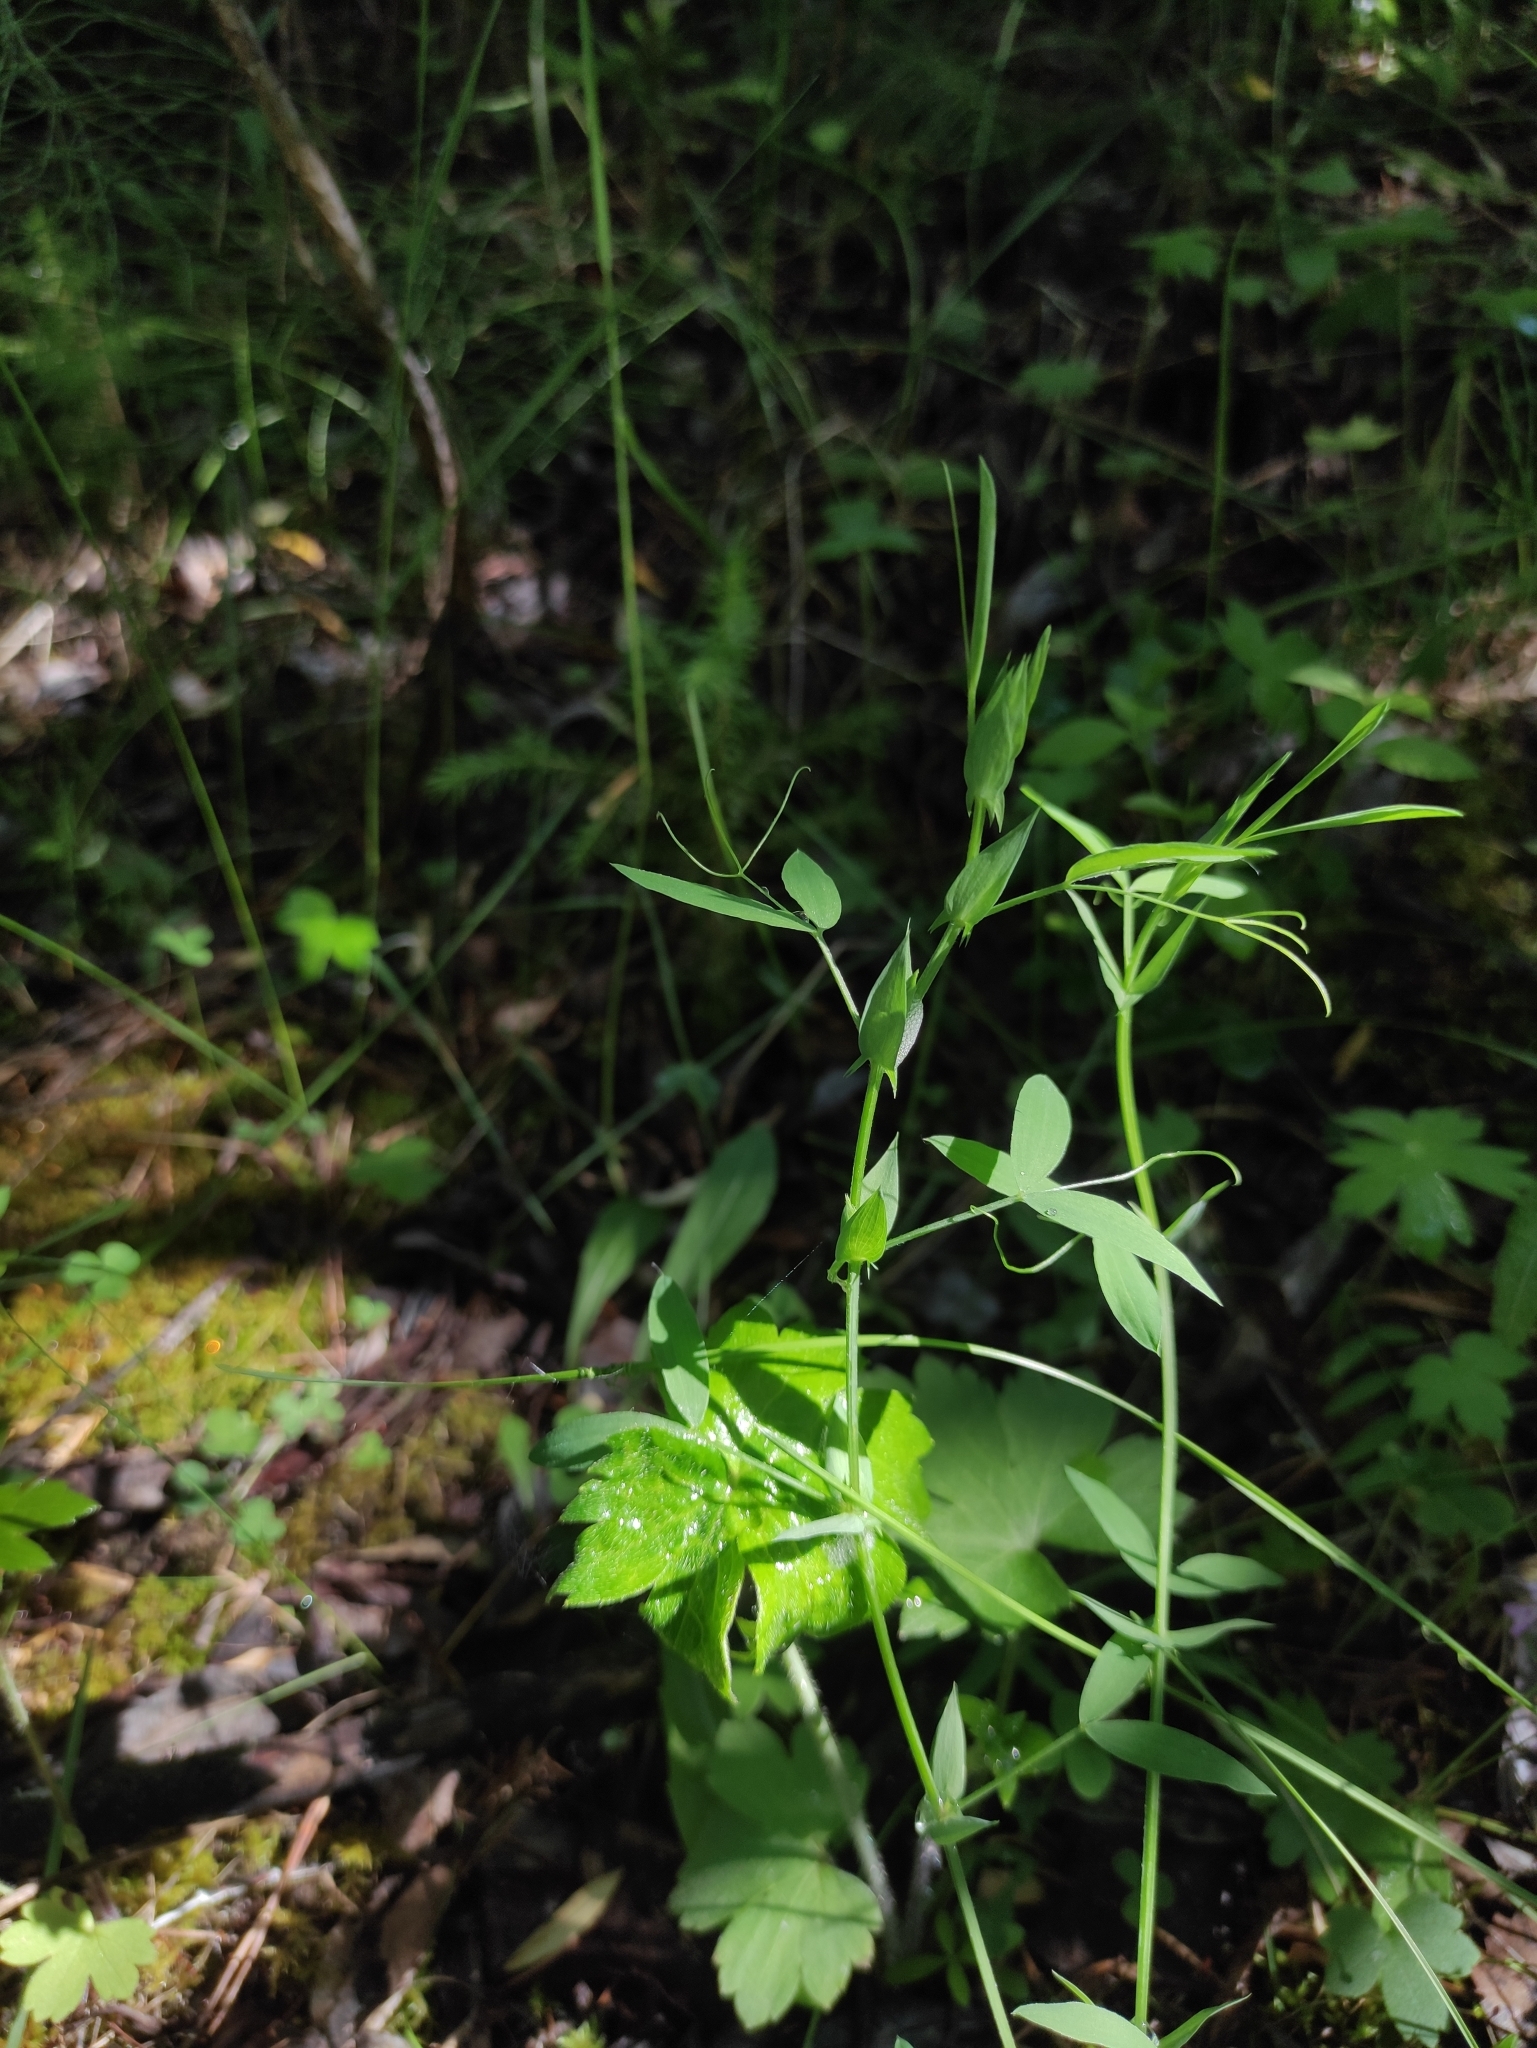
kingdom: Plantae
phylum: Tracheophyta
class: Magnoliopsida
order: Fabales
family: Fabaceae
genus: Lathyrus
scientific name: Lathyrus pratensis
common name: Meadow vetchling
